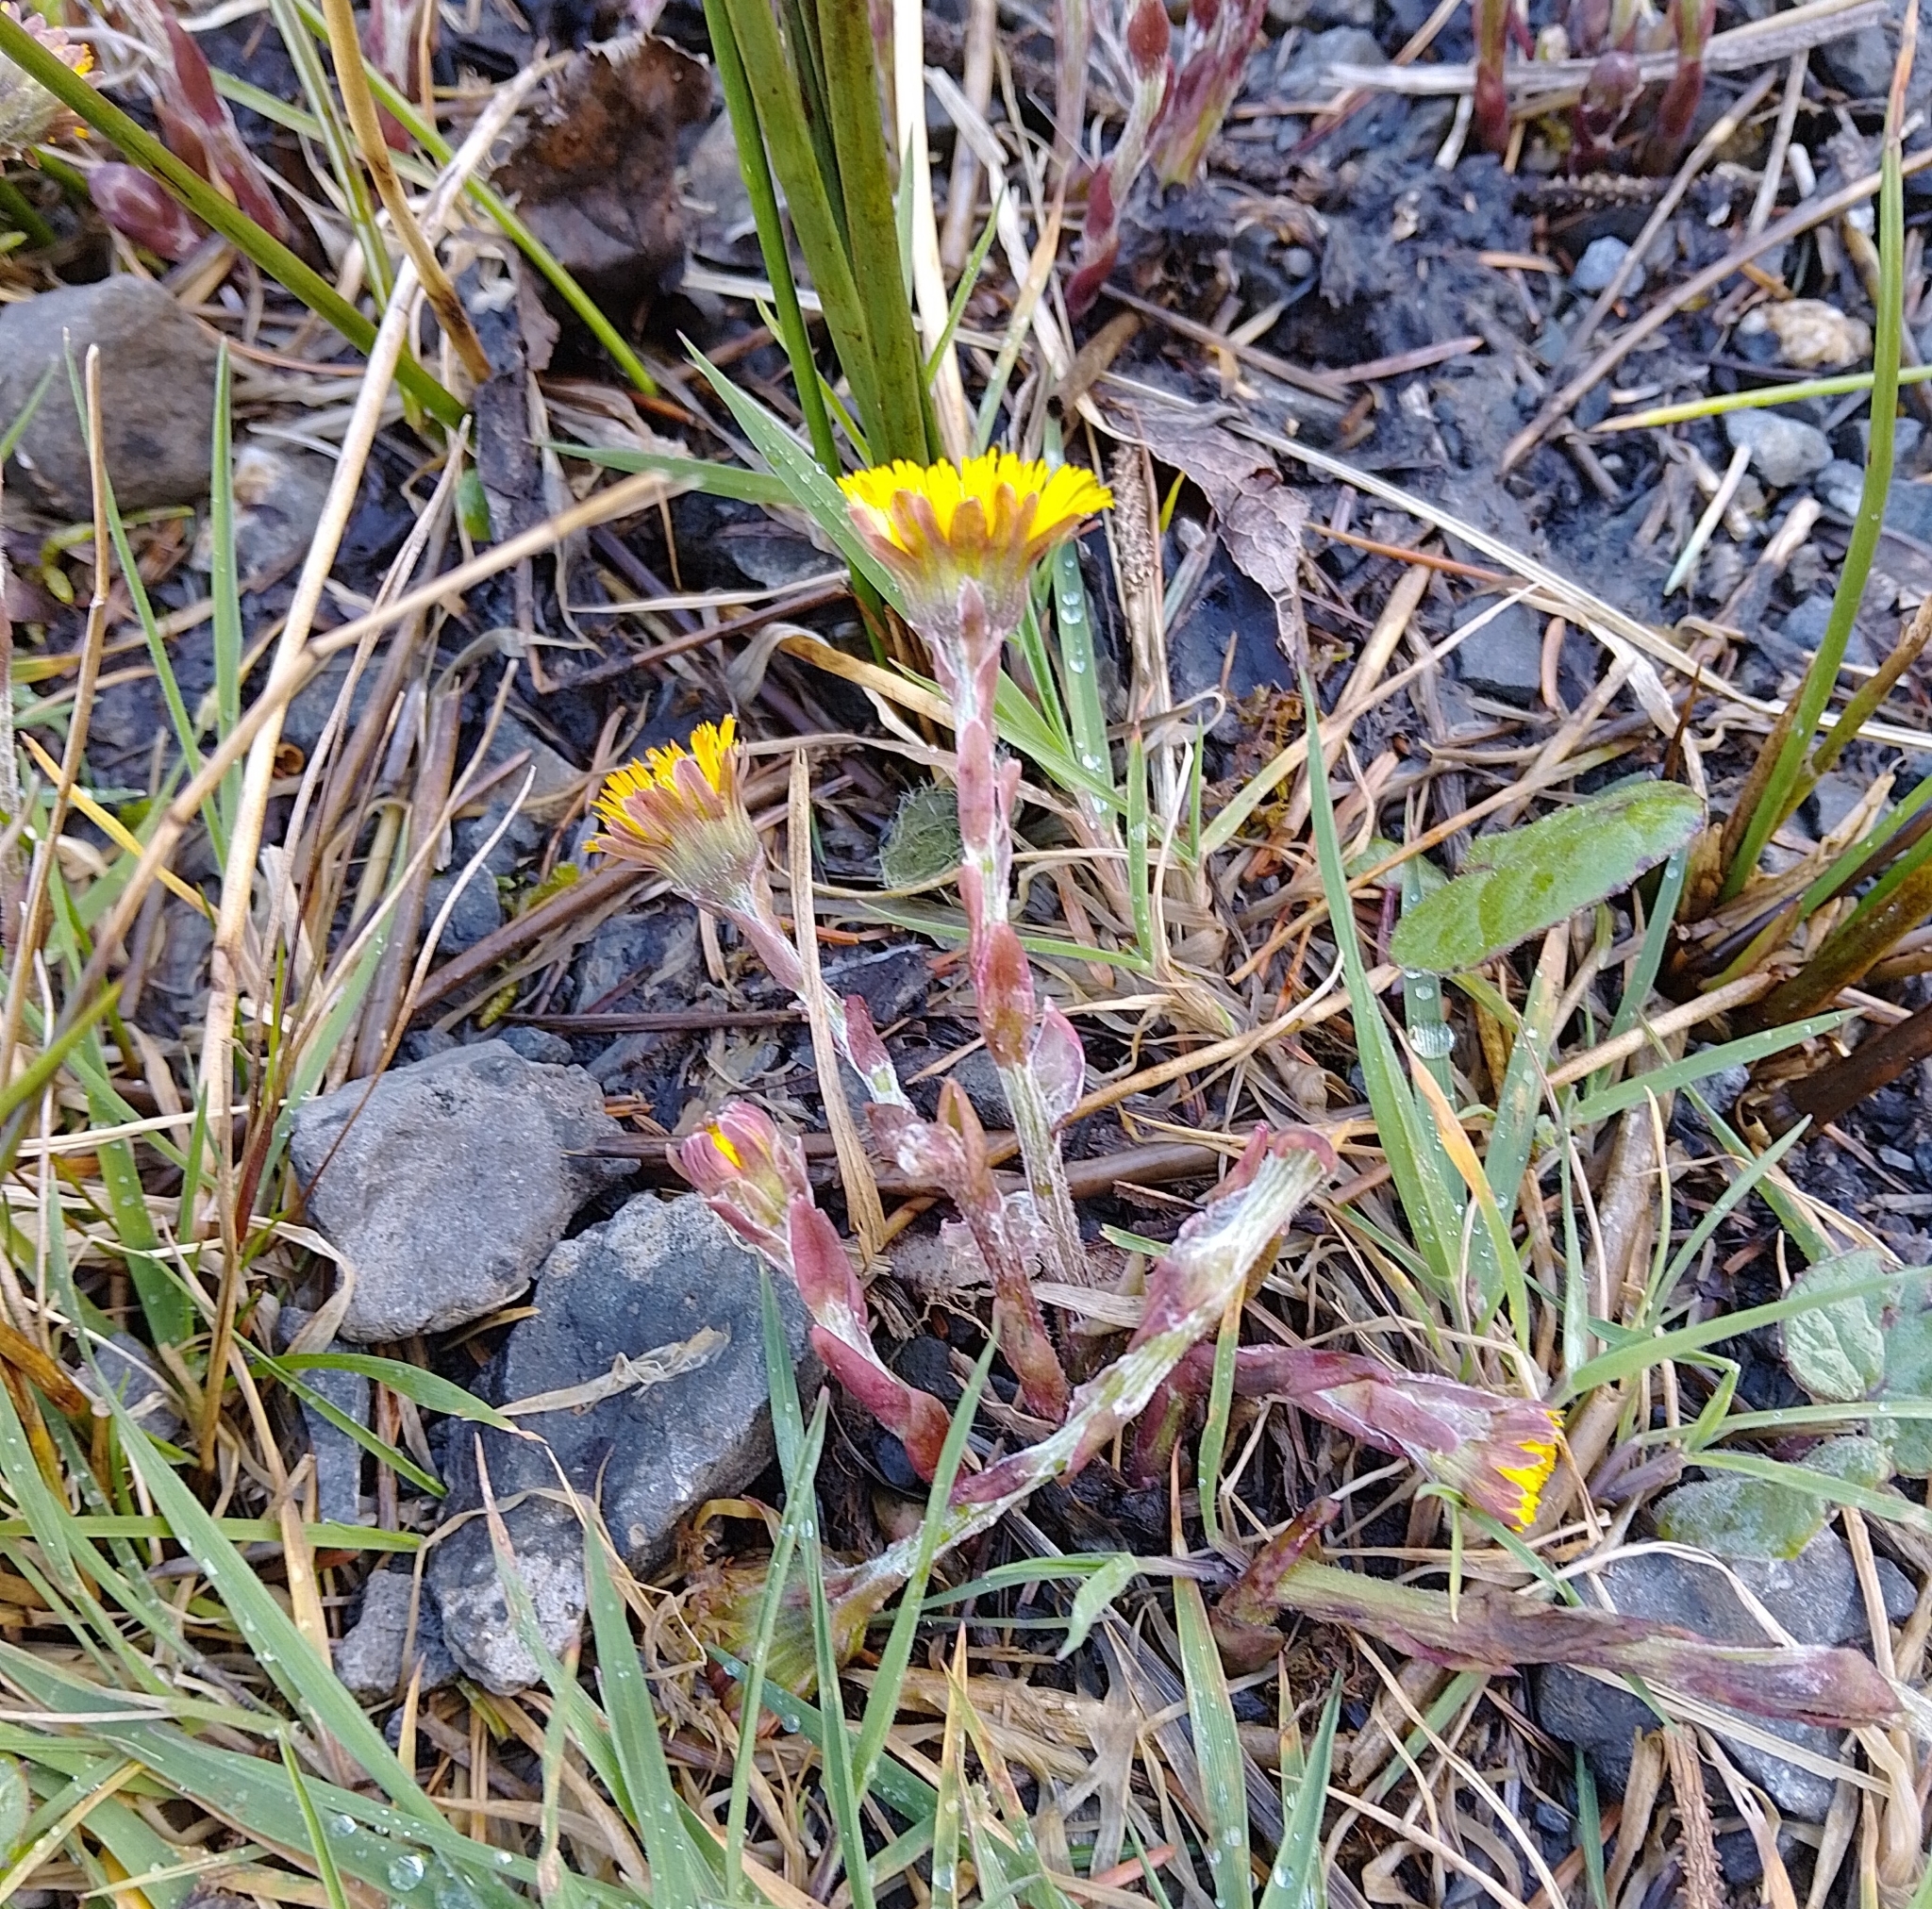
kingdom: Plantae
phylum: Tracheophyta
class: Magnoliopsida
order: Asterales
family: Asteraceae
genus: Tussilago
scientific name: Tussilago farfara
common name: Coltsfoot
